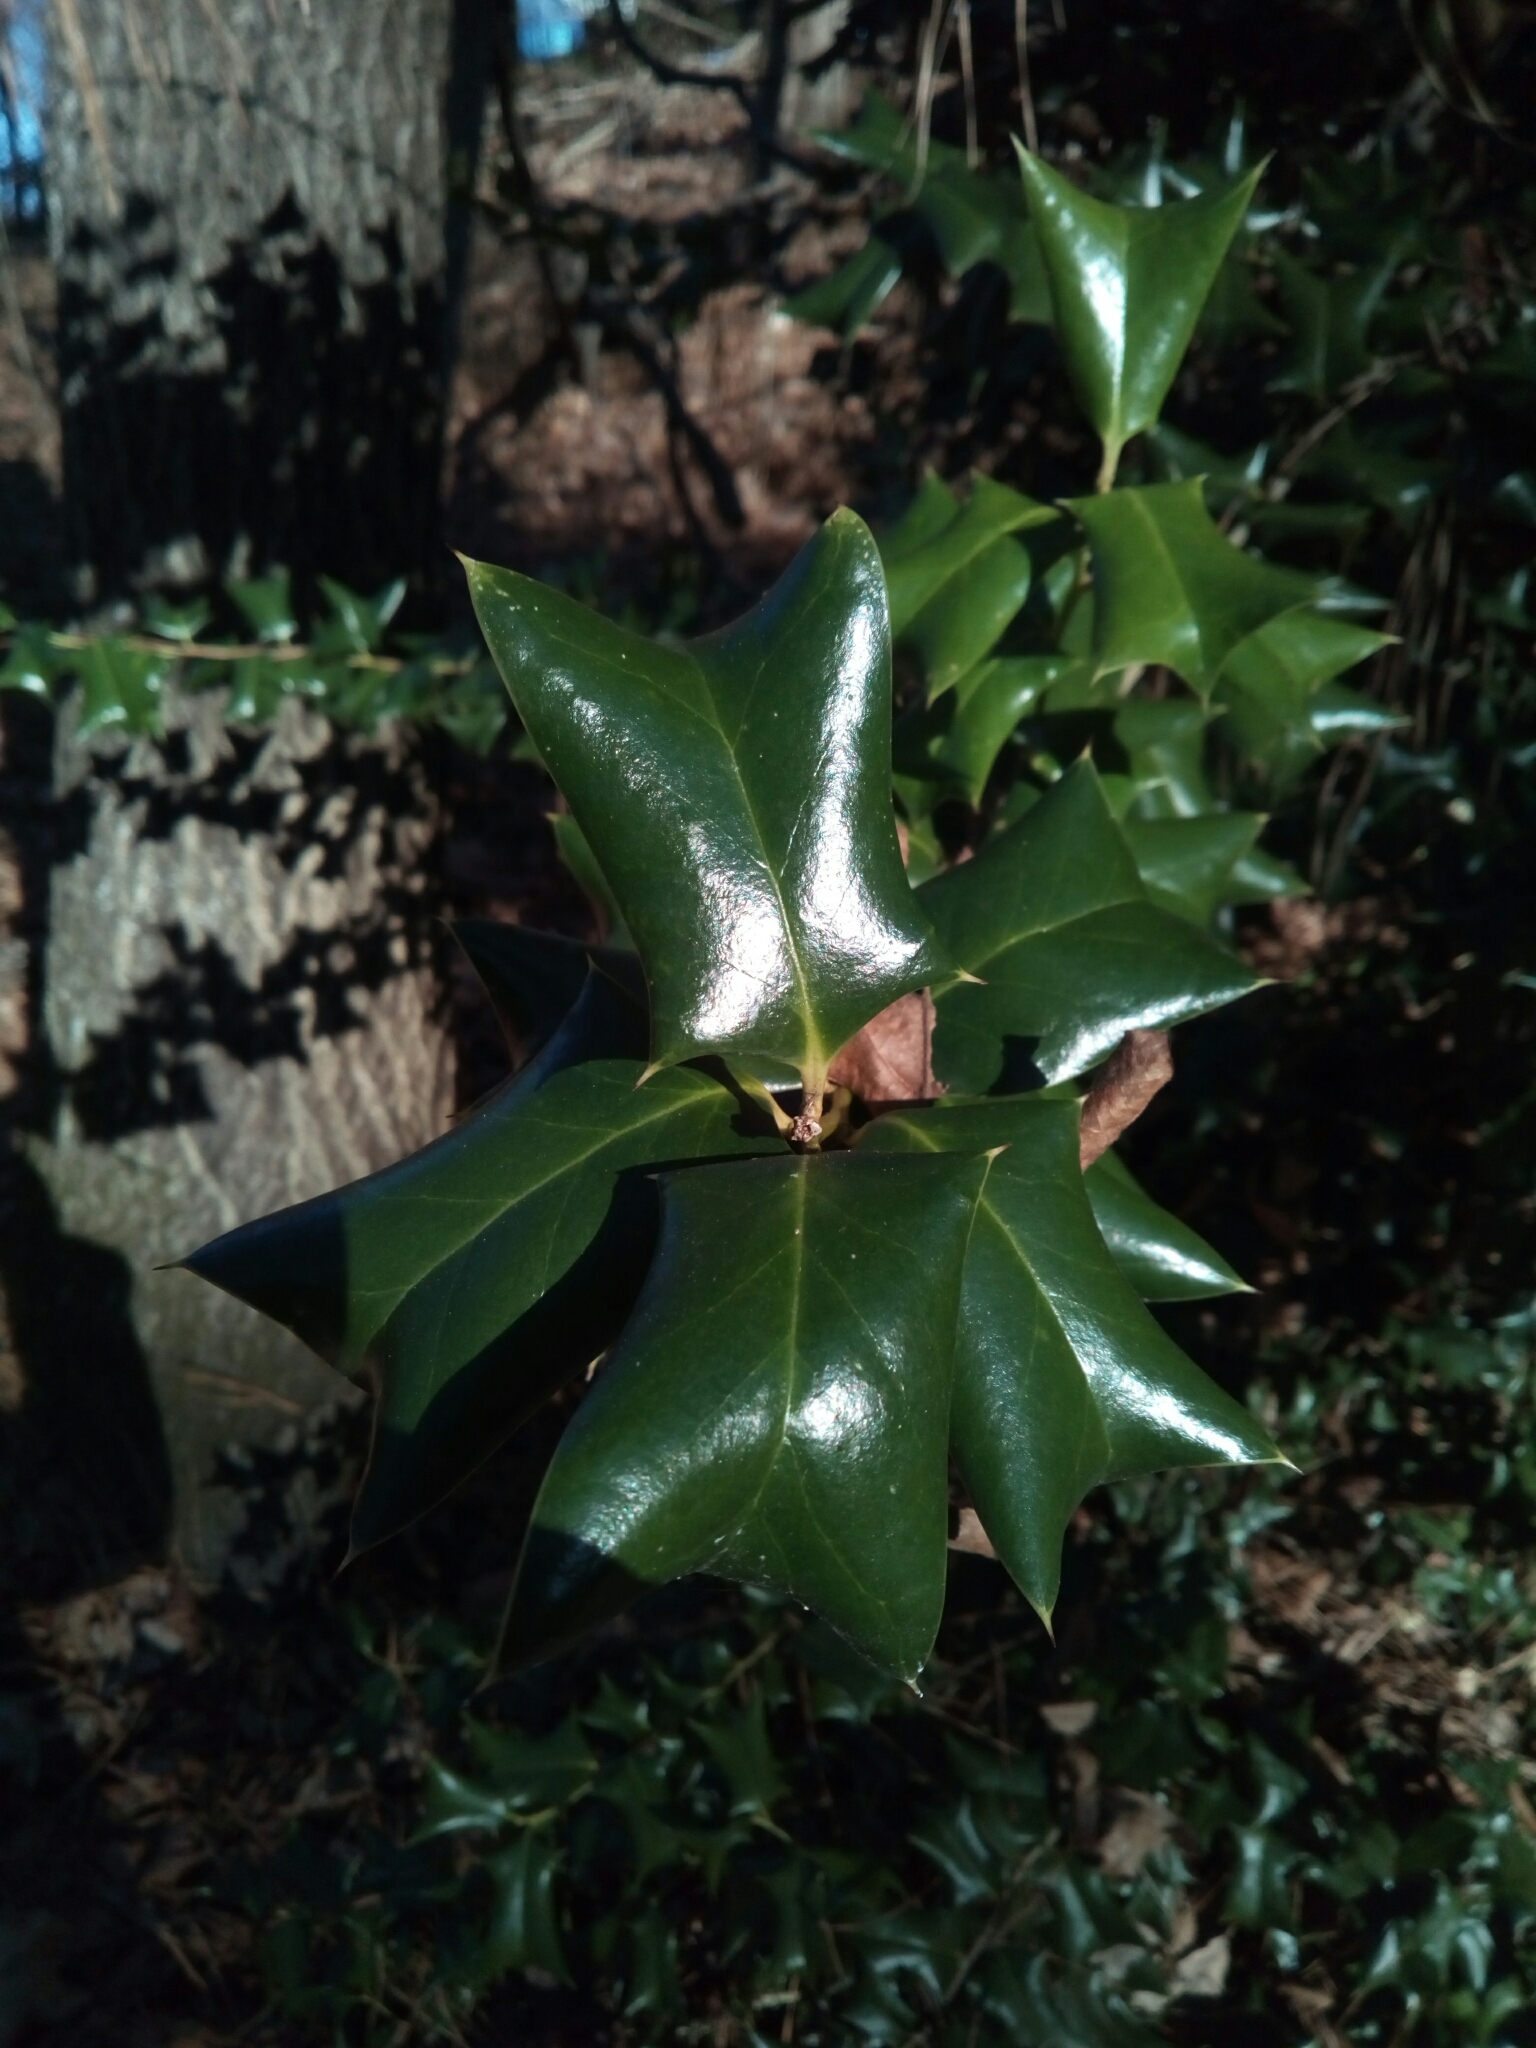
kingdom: Plantae
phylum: Tracheophyta
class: Magnoliopsida
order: Aquifoliales
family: Aquifoliaceae
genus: Ilex
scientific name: Ilex cornuta
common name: Chinese holly
